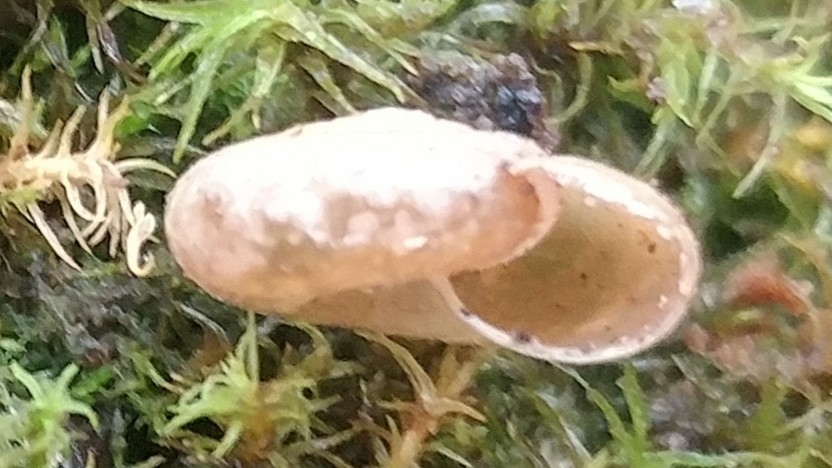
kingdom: Animalia
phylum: Mollusca
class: Gastropoda
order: Stylommatophora
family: Oxychilidae
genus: Oxychilus
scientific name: Oxychilus
